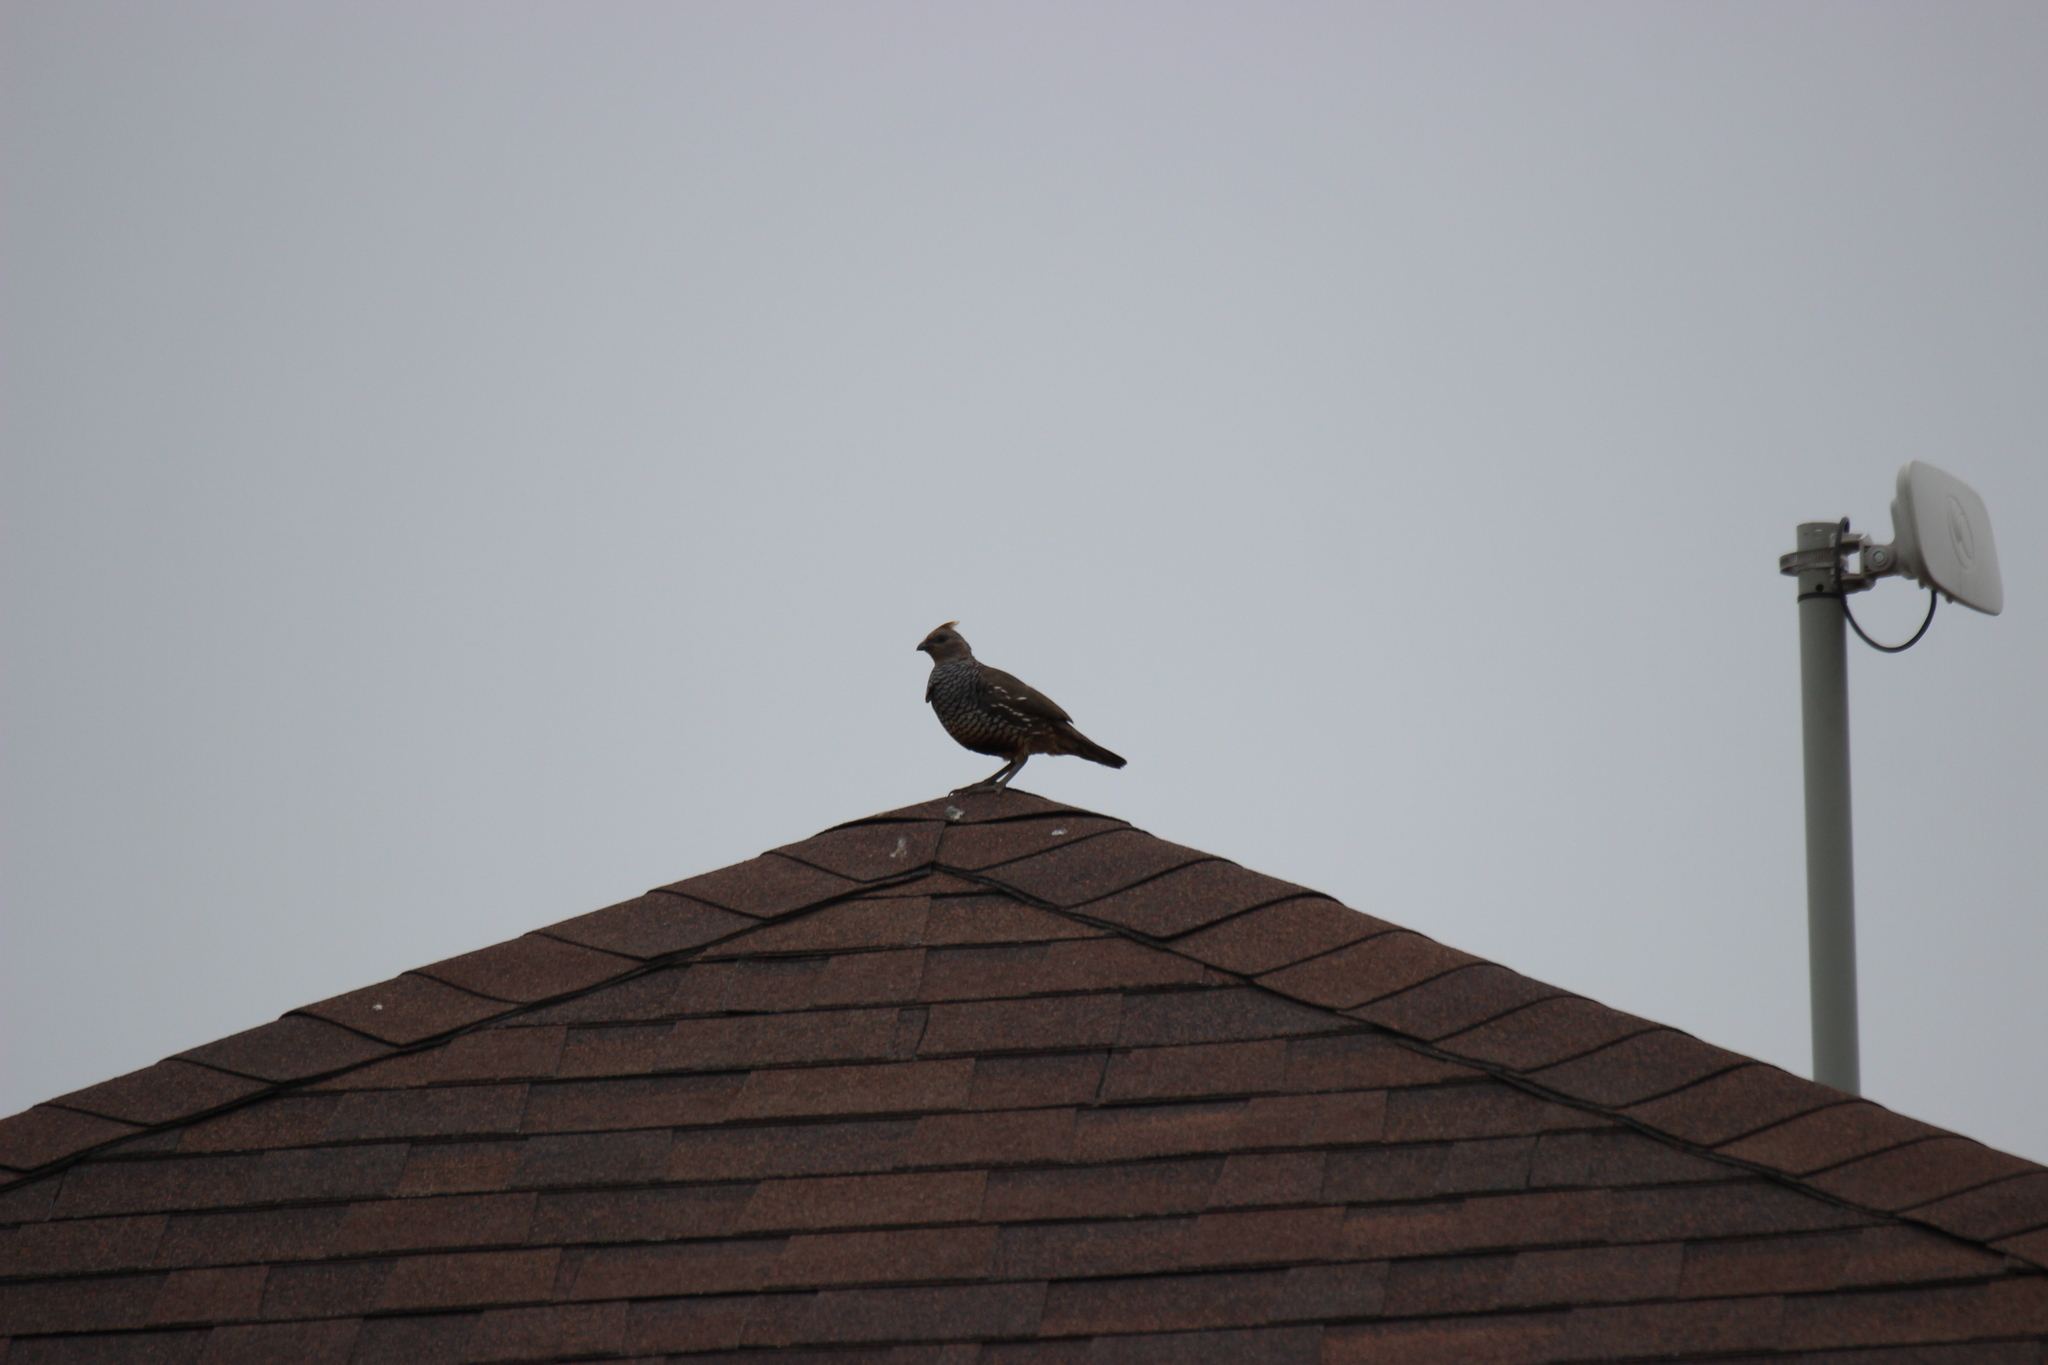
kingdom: Animalia
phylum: Chordata
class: Aves
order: Galliformes
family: Odontophoridae
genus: Callipepla
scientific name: Callipepla squamata
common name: Scaled quail
